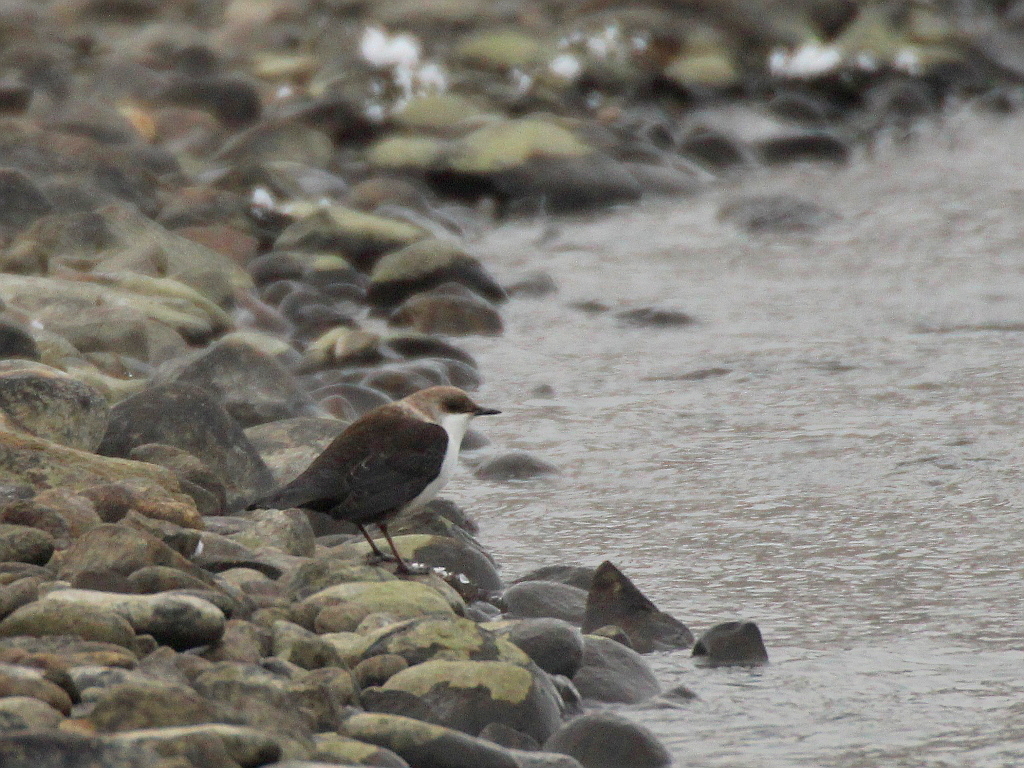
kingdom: Animalia
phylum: Chordata
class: Aves
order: Passeriformes
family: Cinclidae
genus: Cinclus
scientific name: Cinclus cinclus
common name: White-throated dipper
